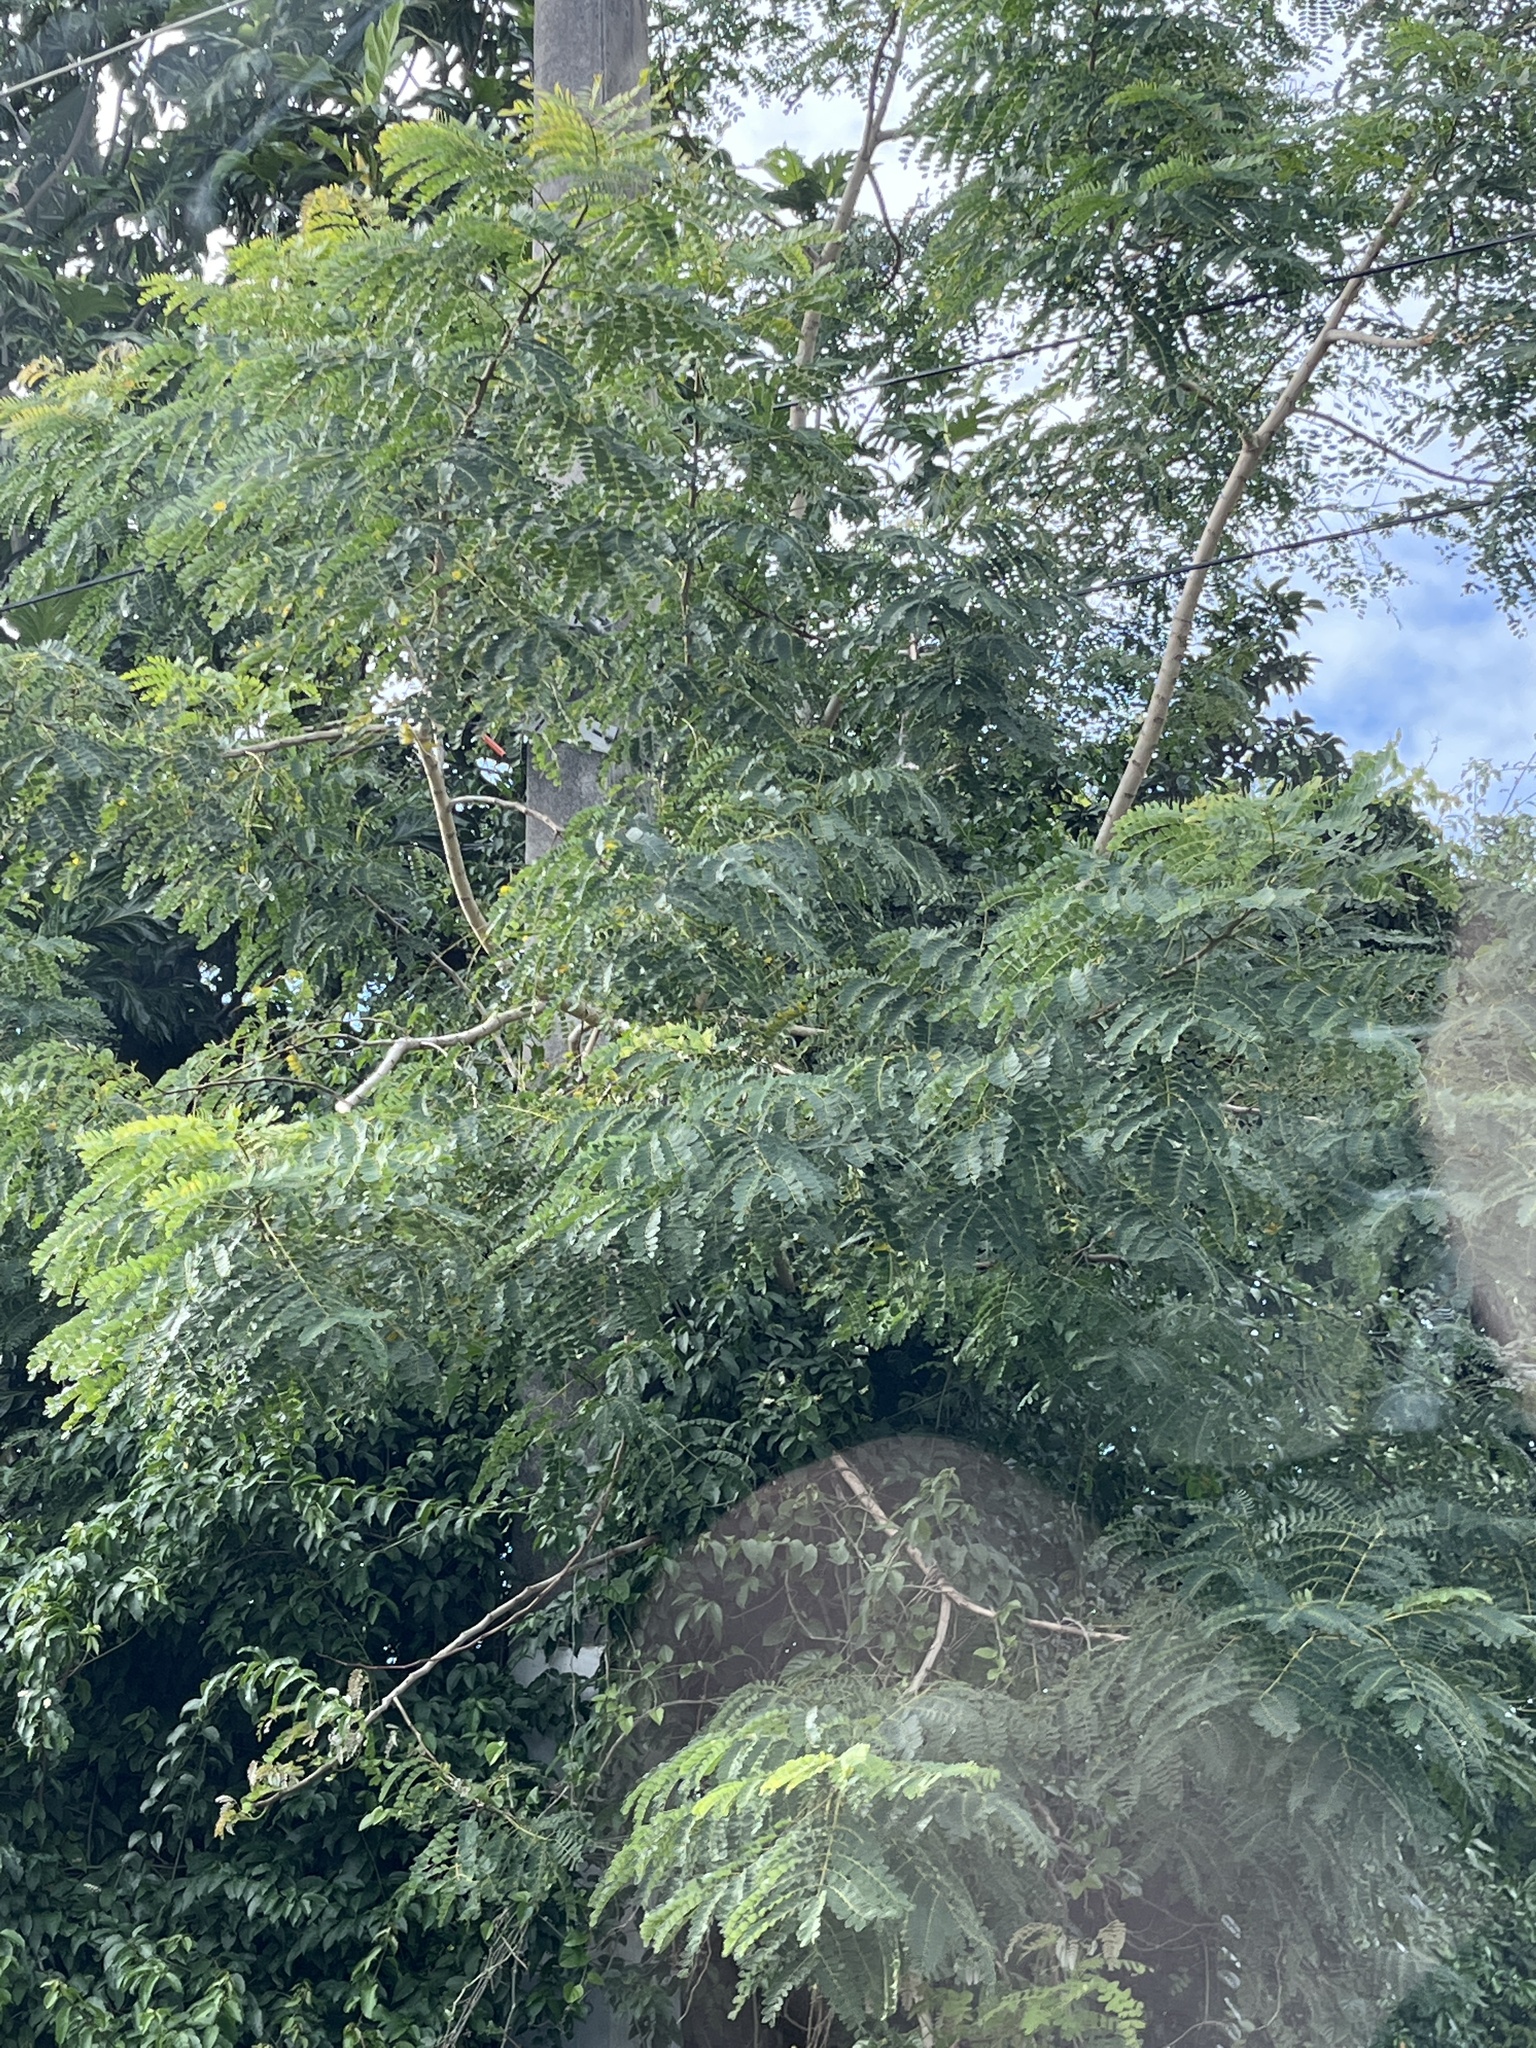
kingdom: Plantae
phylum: Tracheophyta
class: Magnoliopsida
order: Fabales
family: Fabaceae
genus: Albizia
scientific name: Albizia procera
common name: Tall albizia
